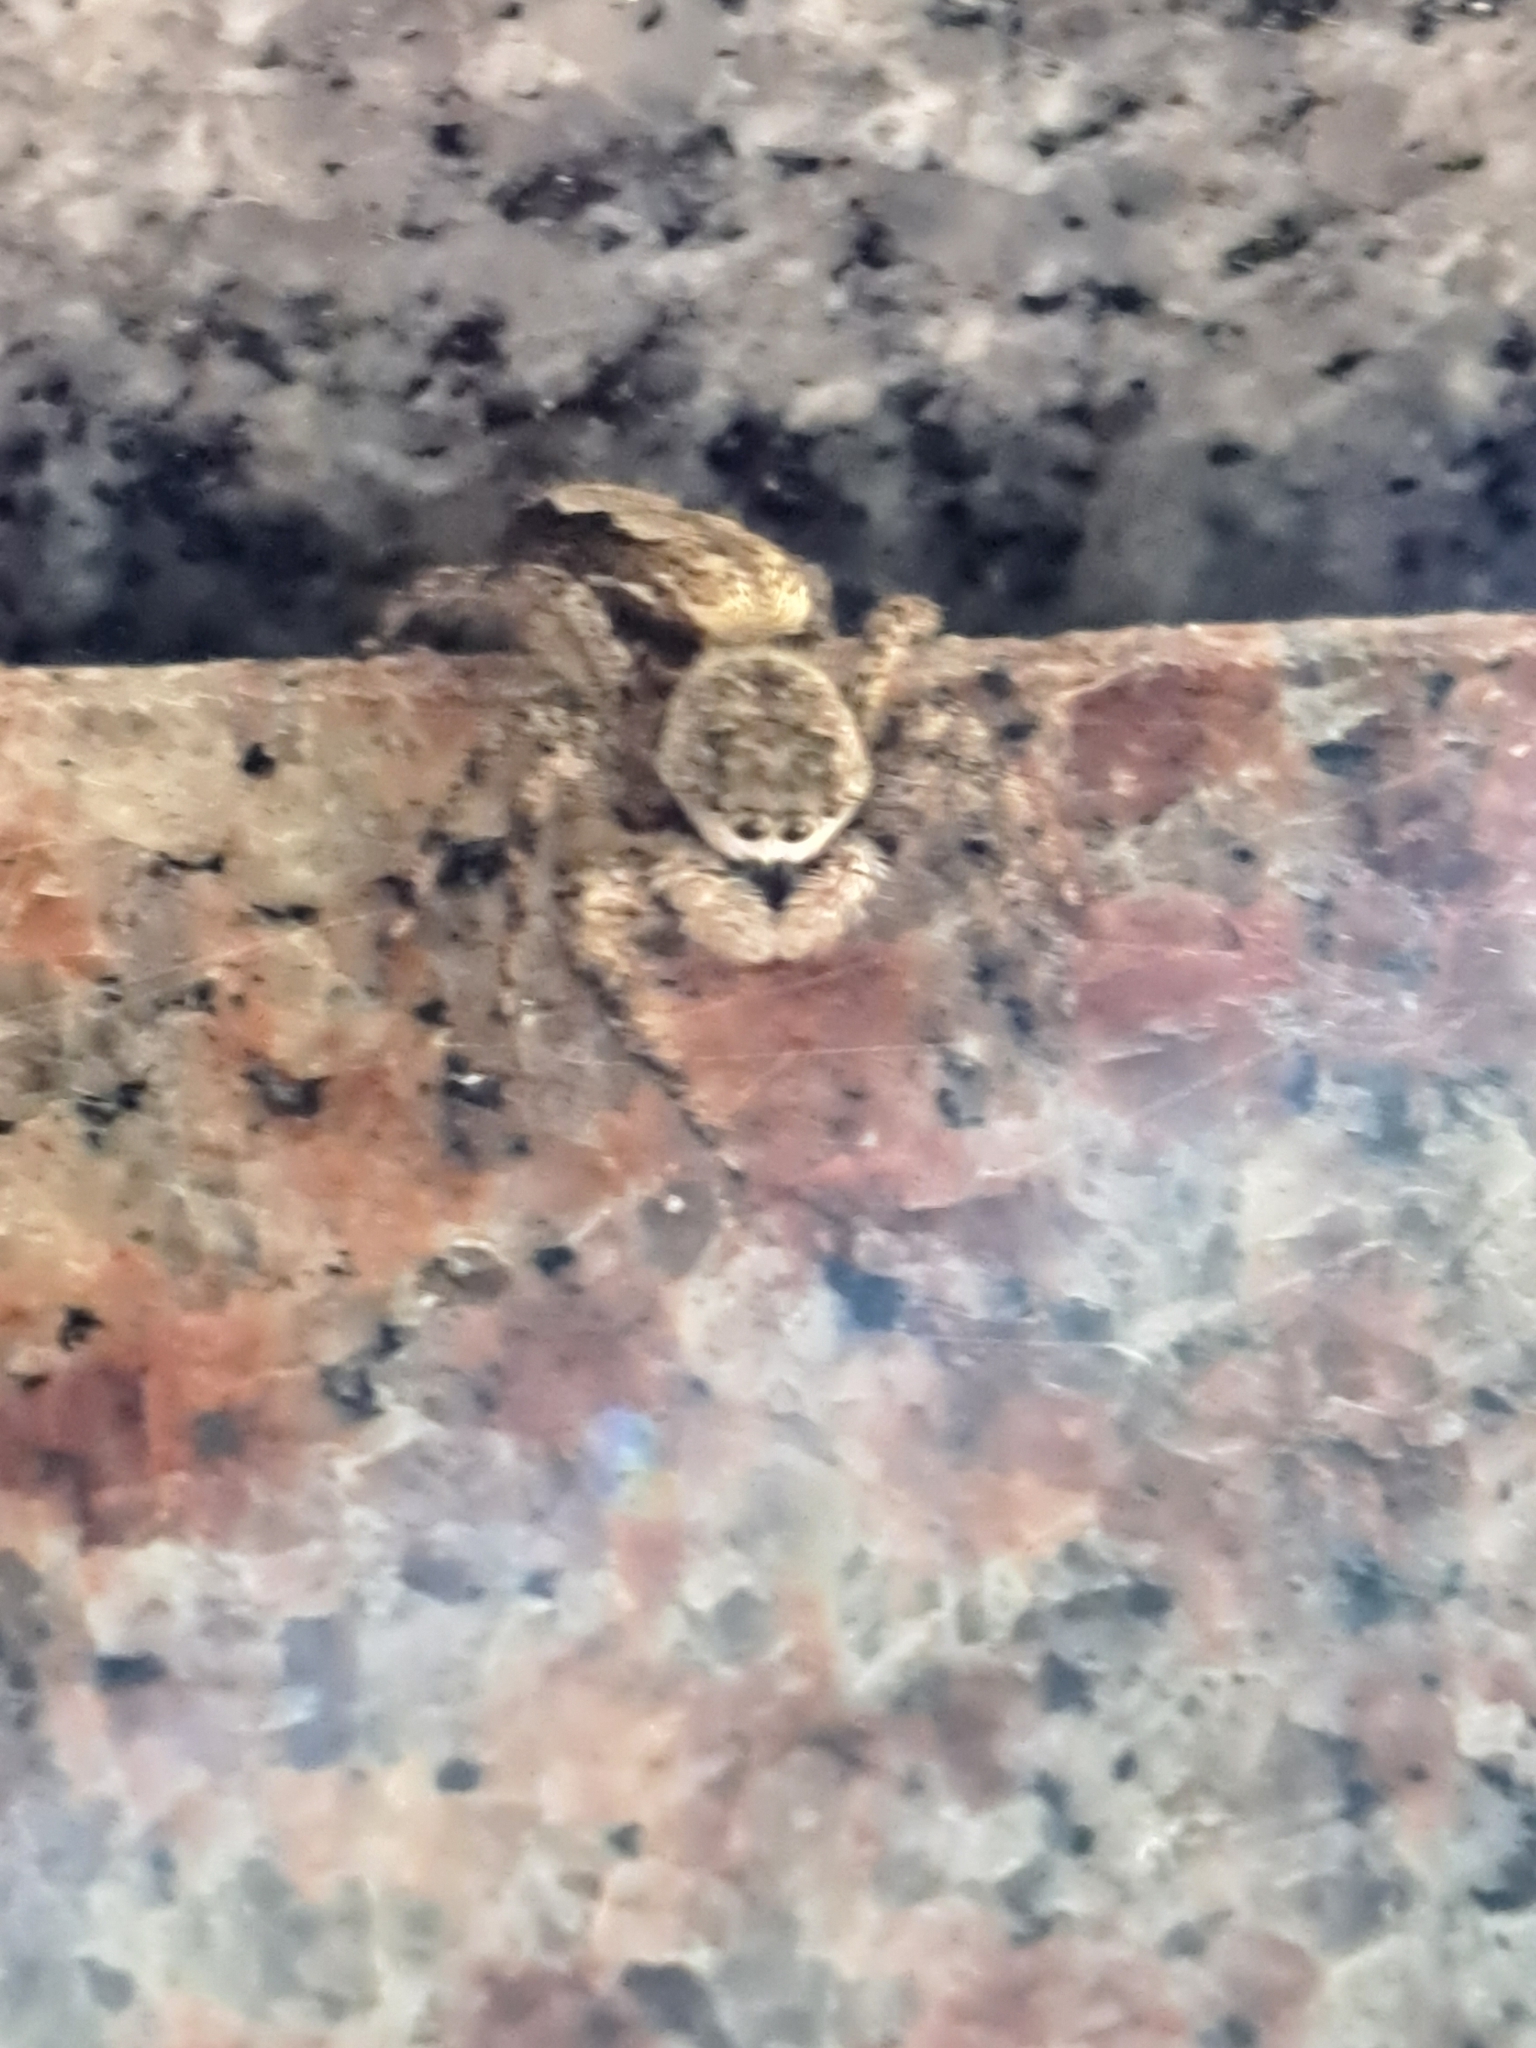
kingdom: Animalia
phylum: Arthropoda
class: Arachnida
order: Araneae
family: Salticidae
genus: Platycryptus
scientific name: Platycryptus undatus
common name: Tan jumping spider
